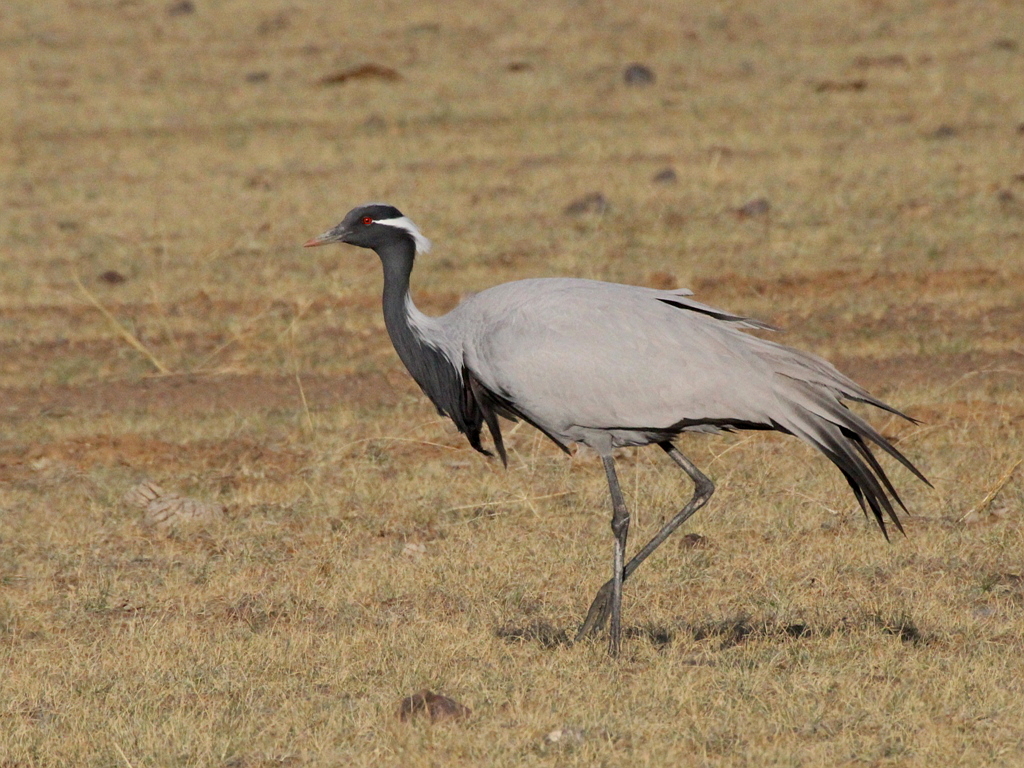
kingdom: Animalia
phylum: Chordata
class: Aves
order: Gruiformes
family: Gruidae
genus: Anthropoides
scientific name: Anthropoides virgo
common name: Demoiselle crane
